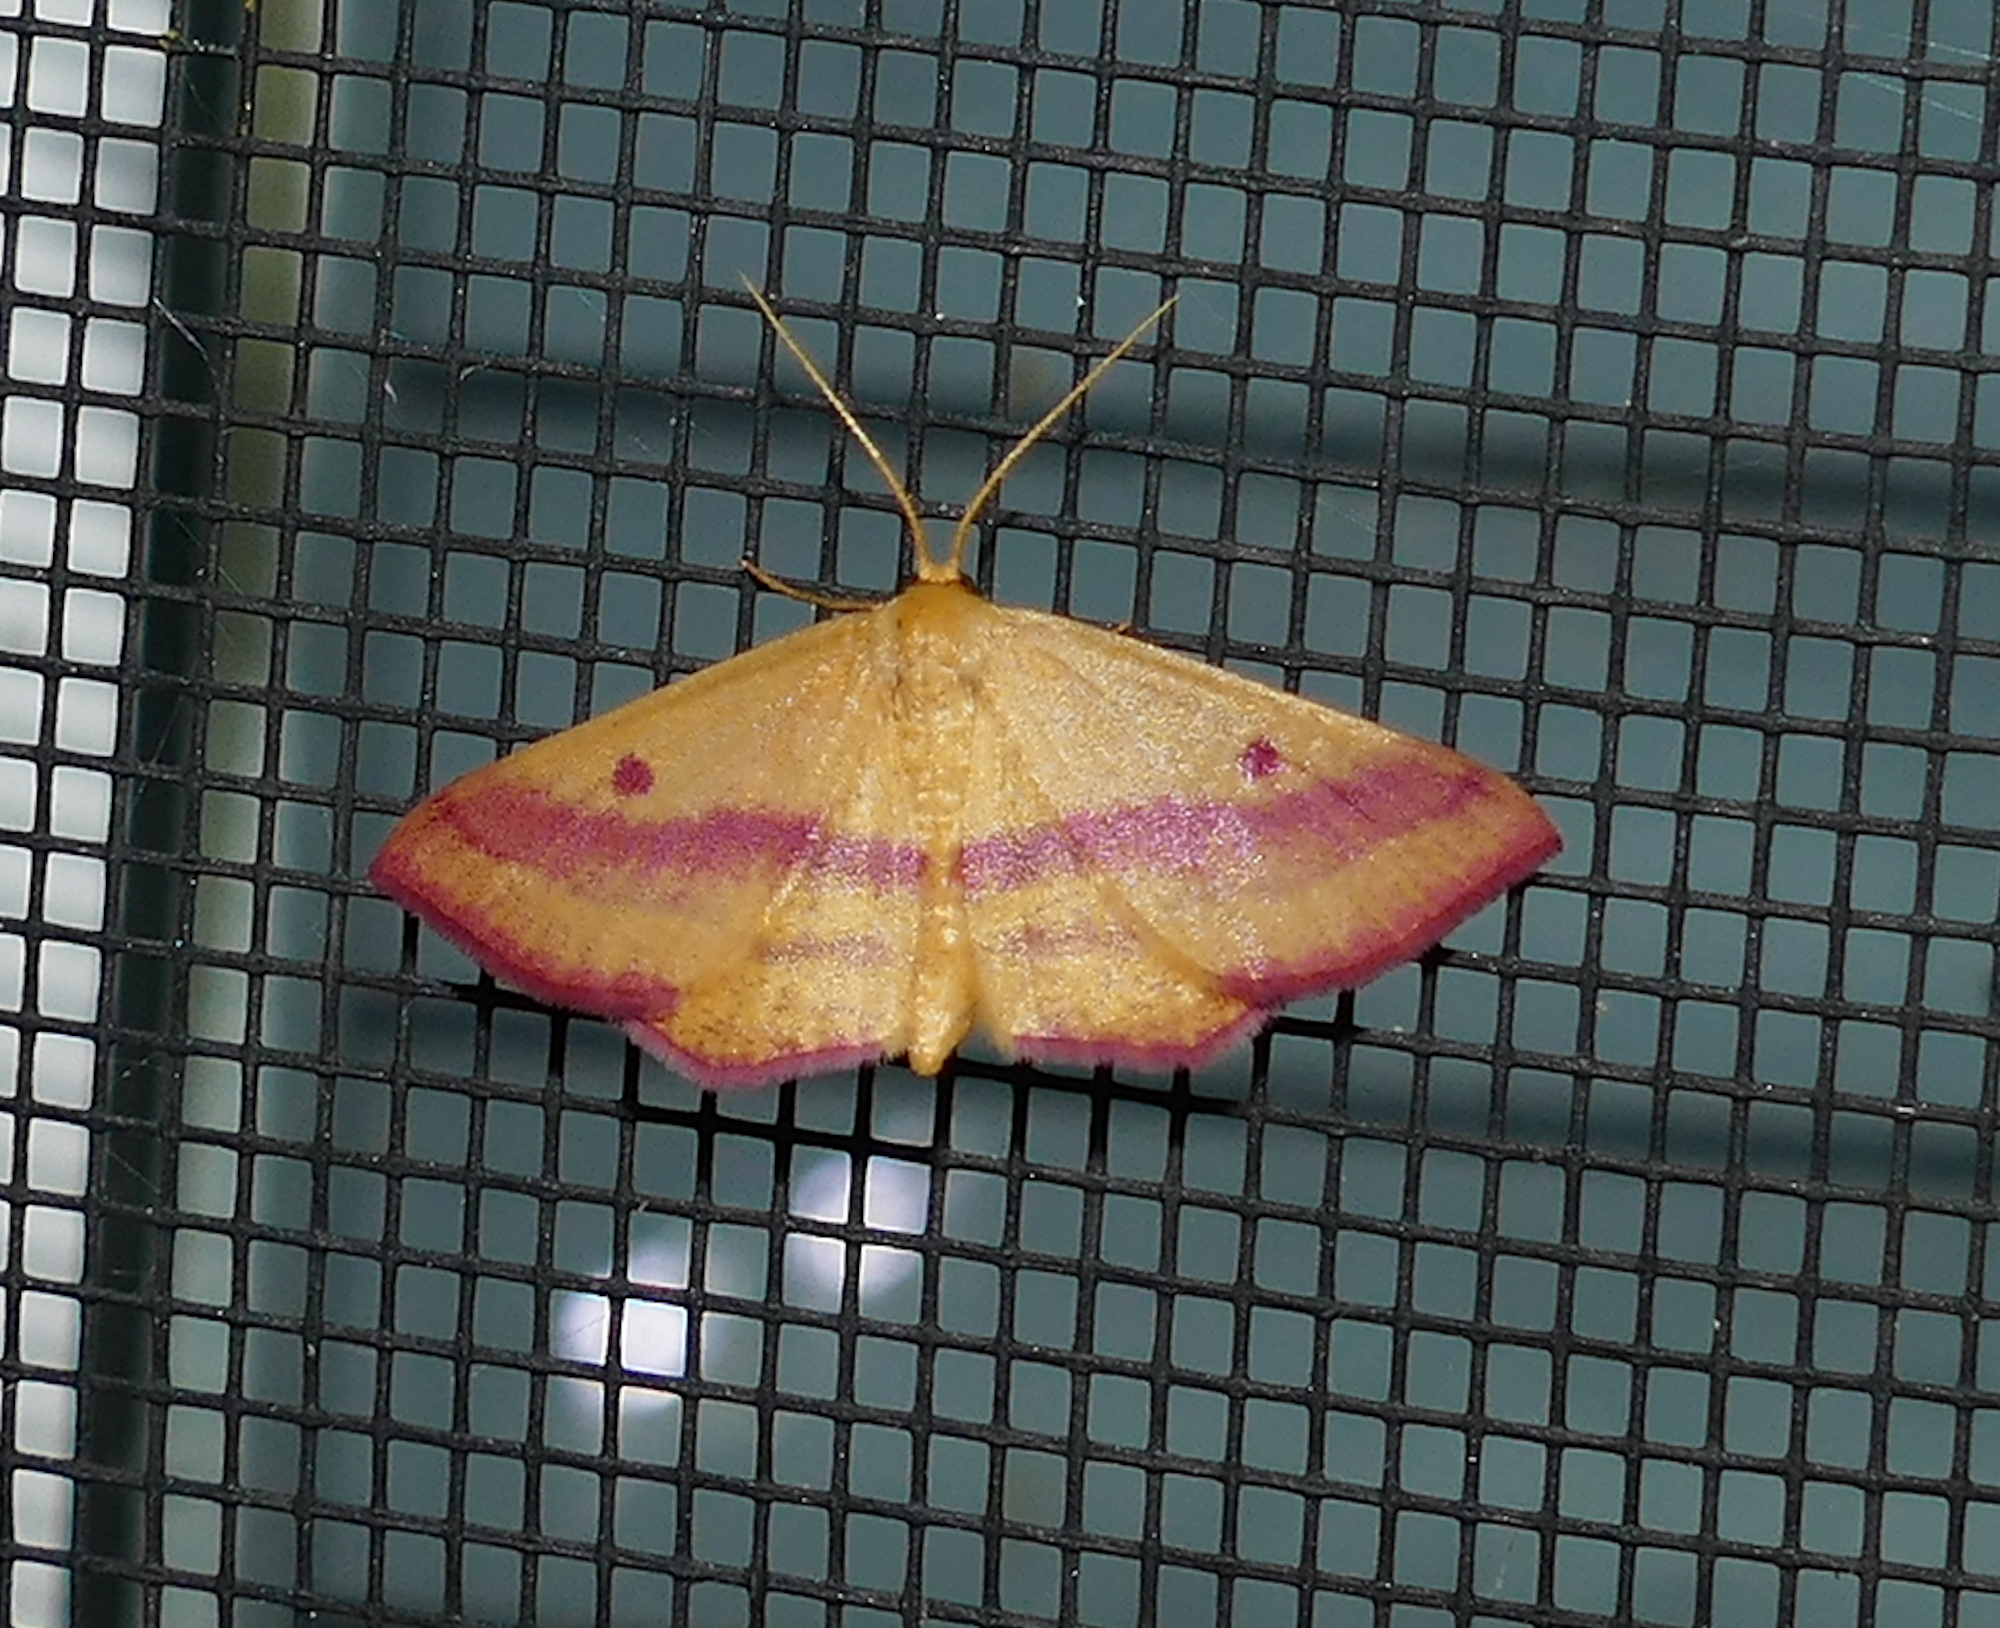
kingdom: Animalia
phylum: Arthropoda
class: Insecta
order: Lepidoptera
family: Geometridae
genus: Haematopis
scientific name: Haematopis grataria
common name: Chickweed geometer
